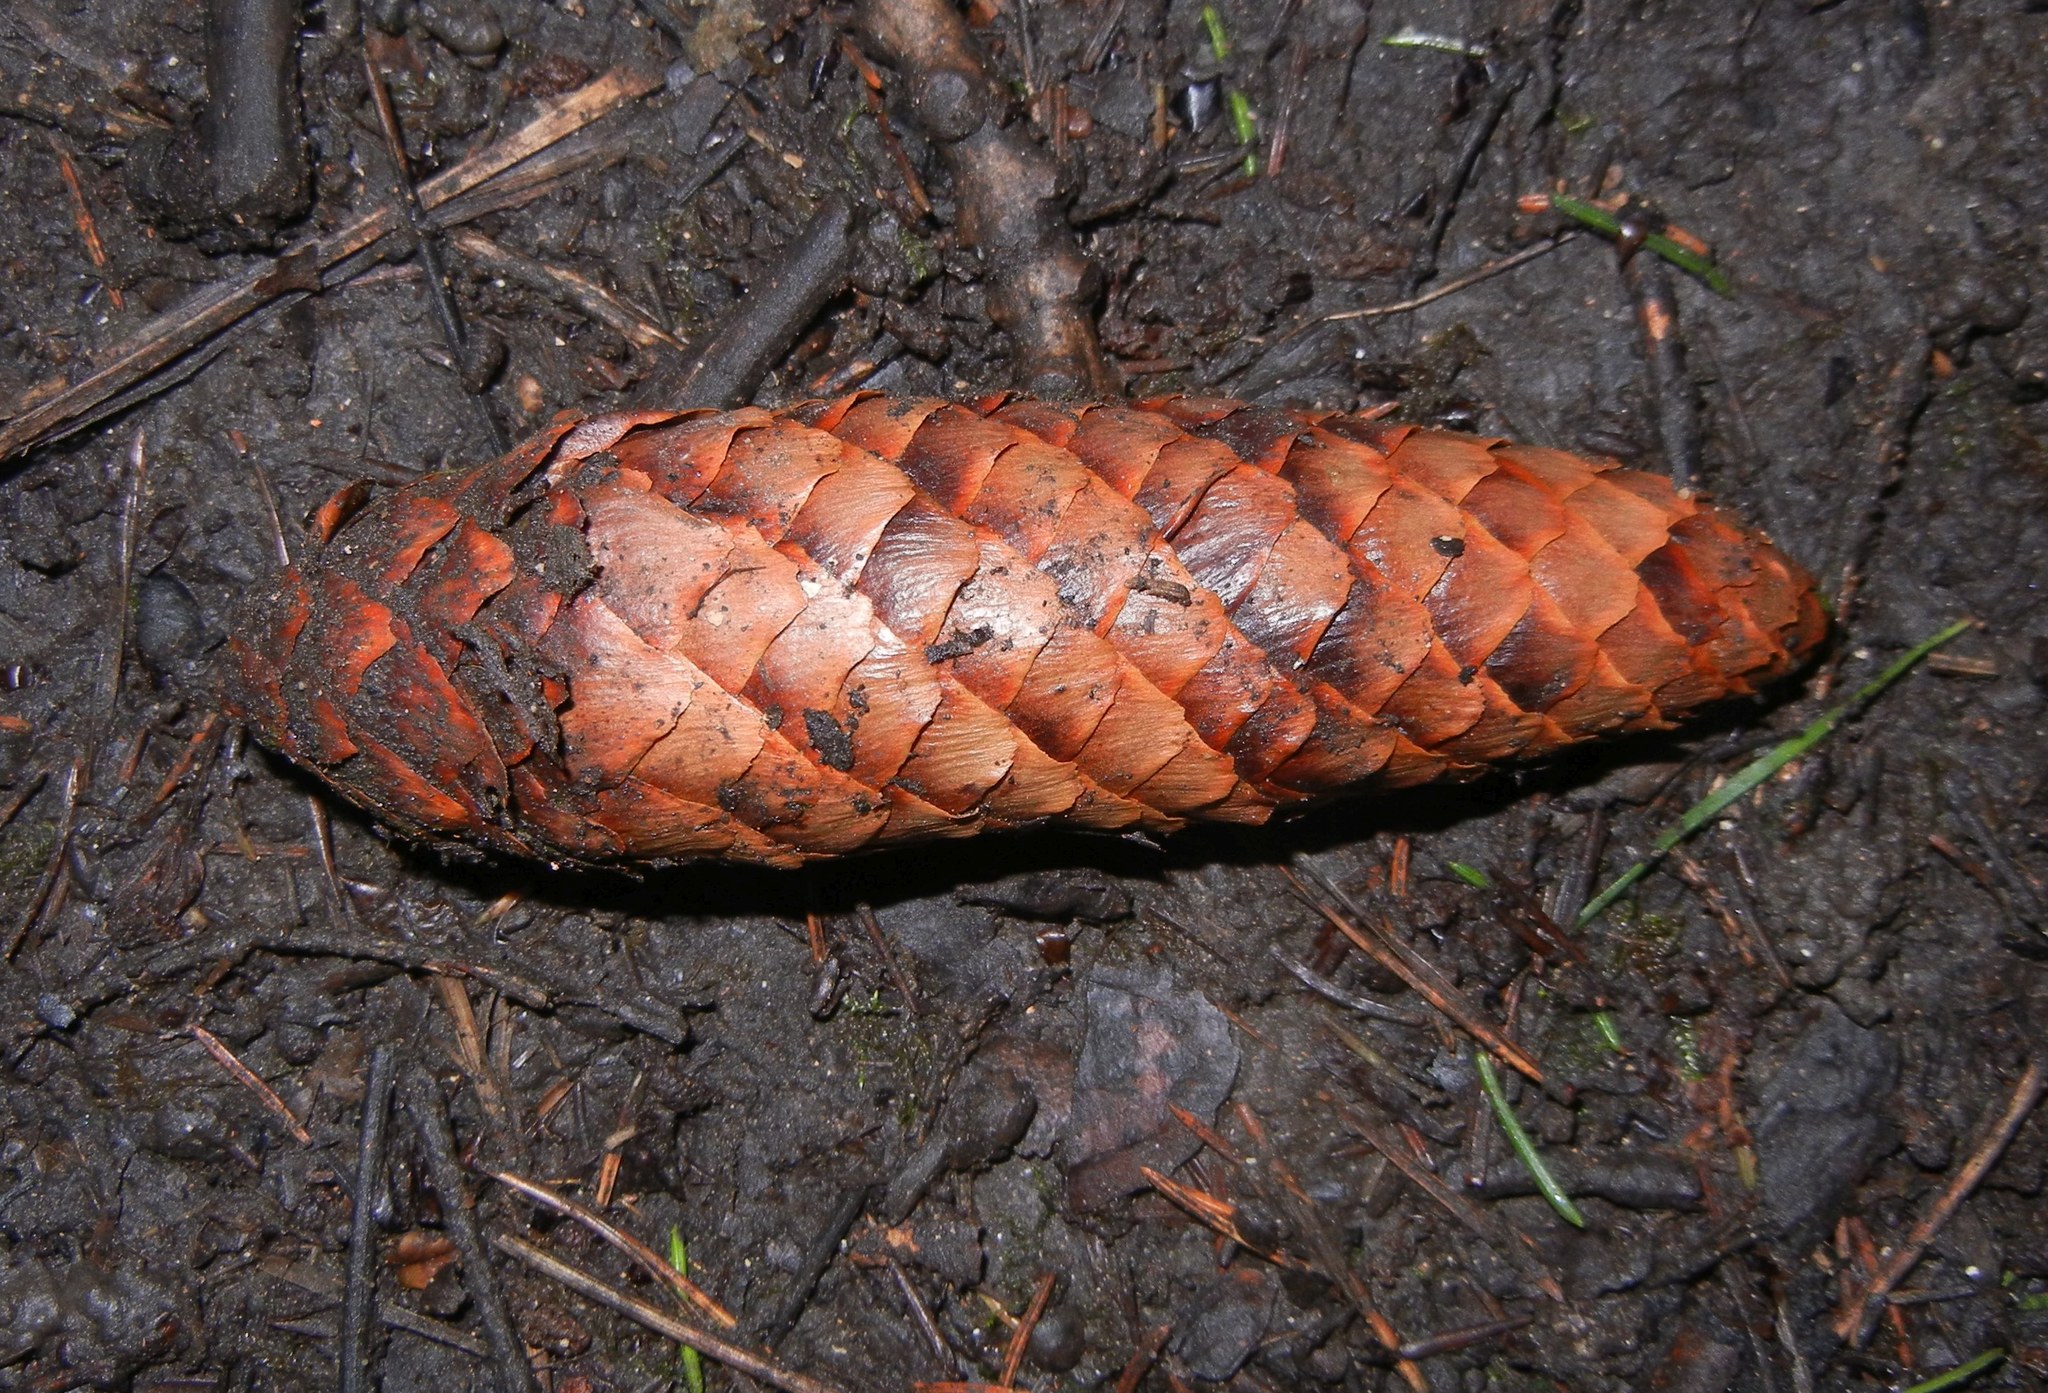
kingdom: Plantae
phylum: Tracheophyta
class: Pinopsida
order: Pinales
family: Pinaceae
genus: Picea
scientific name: Picea abies
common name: Norway spruce
